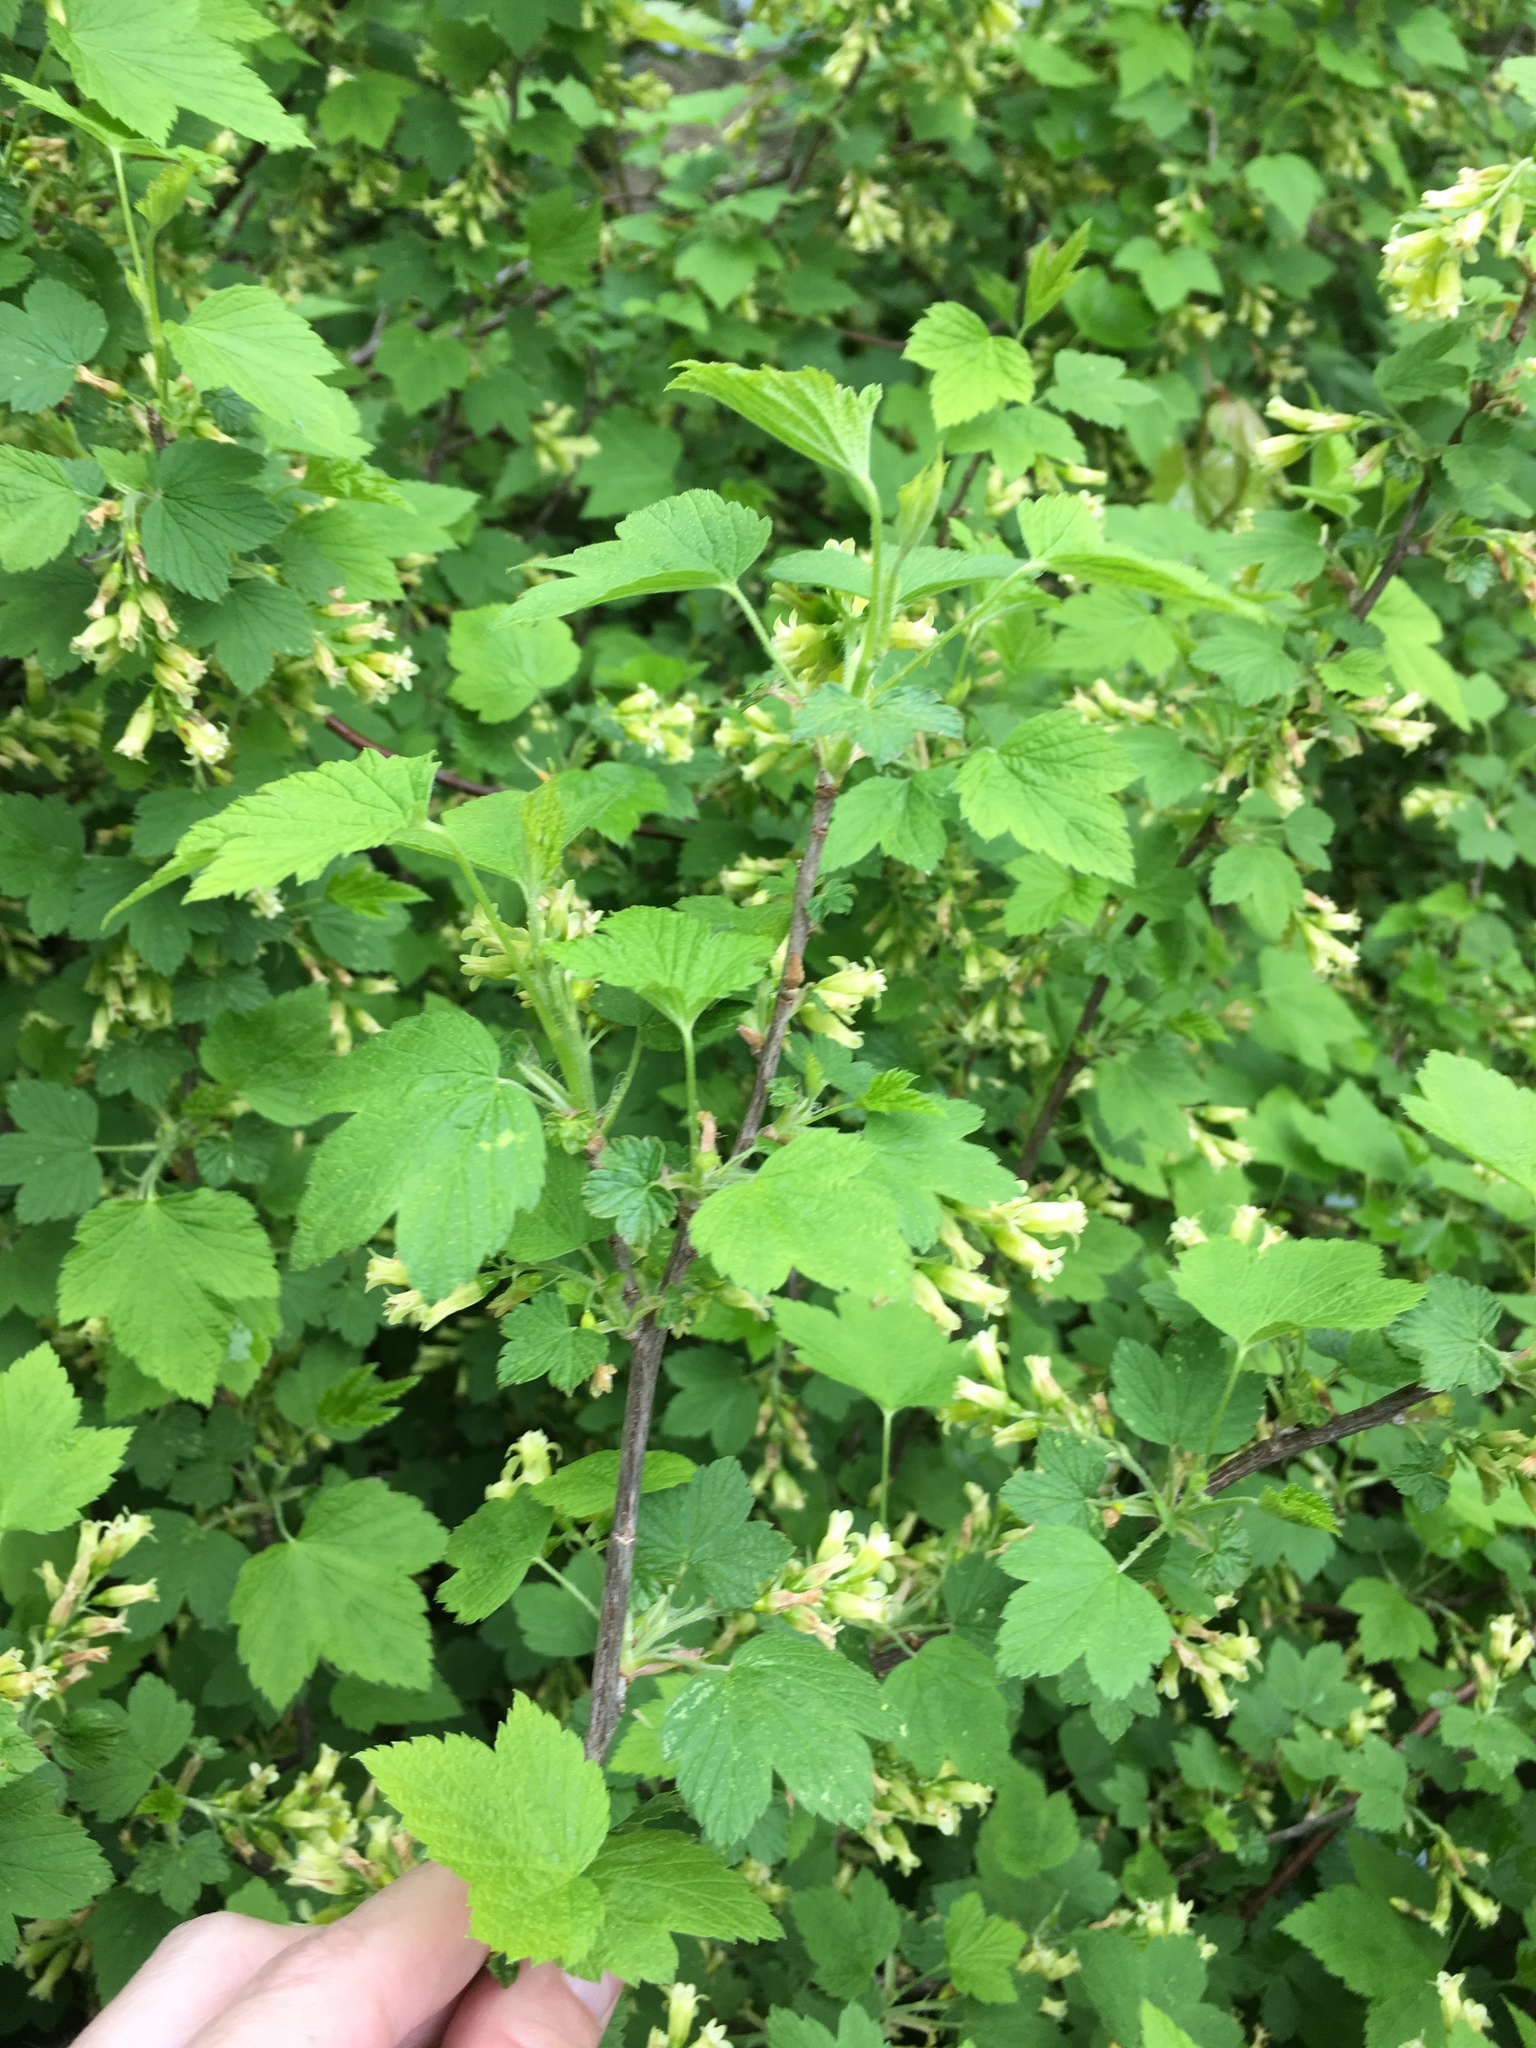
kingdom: Plantae
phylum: Tracheophyta
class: Magnoliopsida
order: Saxifragales
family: Grossulariaceae
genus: Ribes
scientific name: Ribes americanum
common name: American black currant
